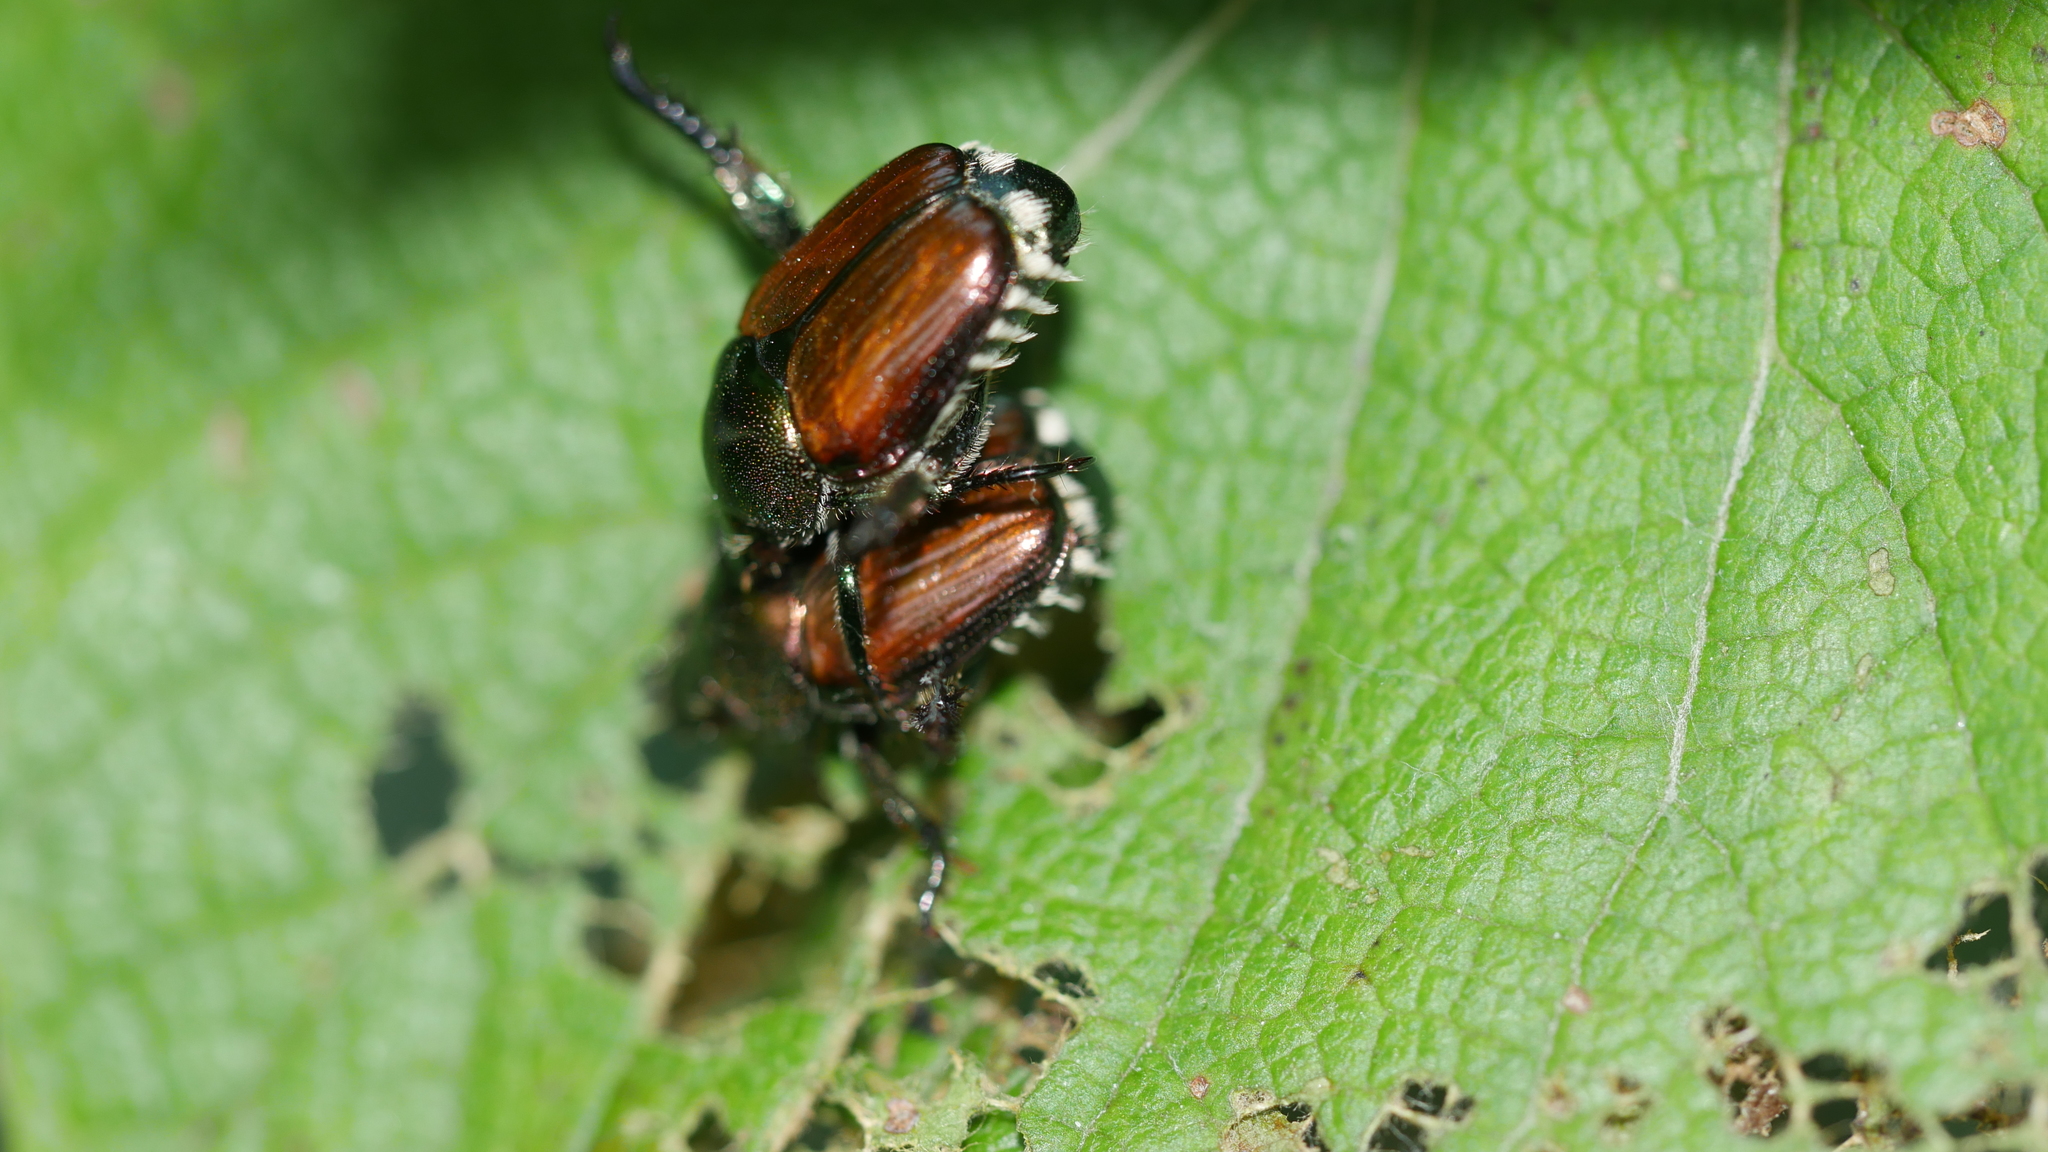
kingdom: Animalia
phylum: Arthropoda
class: Insecta
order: Coleoptera
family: Scarabaeidae
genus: Popillia
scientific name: Popillia japonica
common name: Japanese beetle
